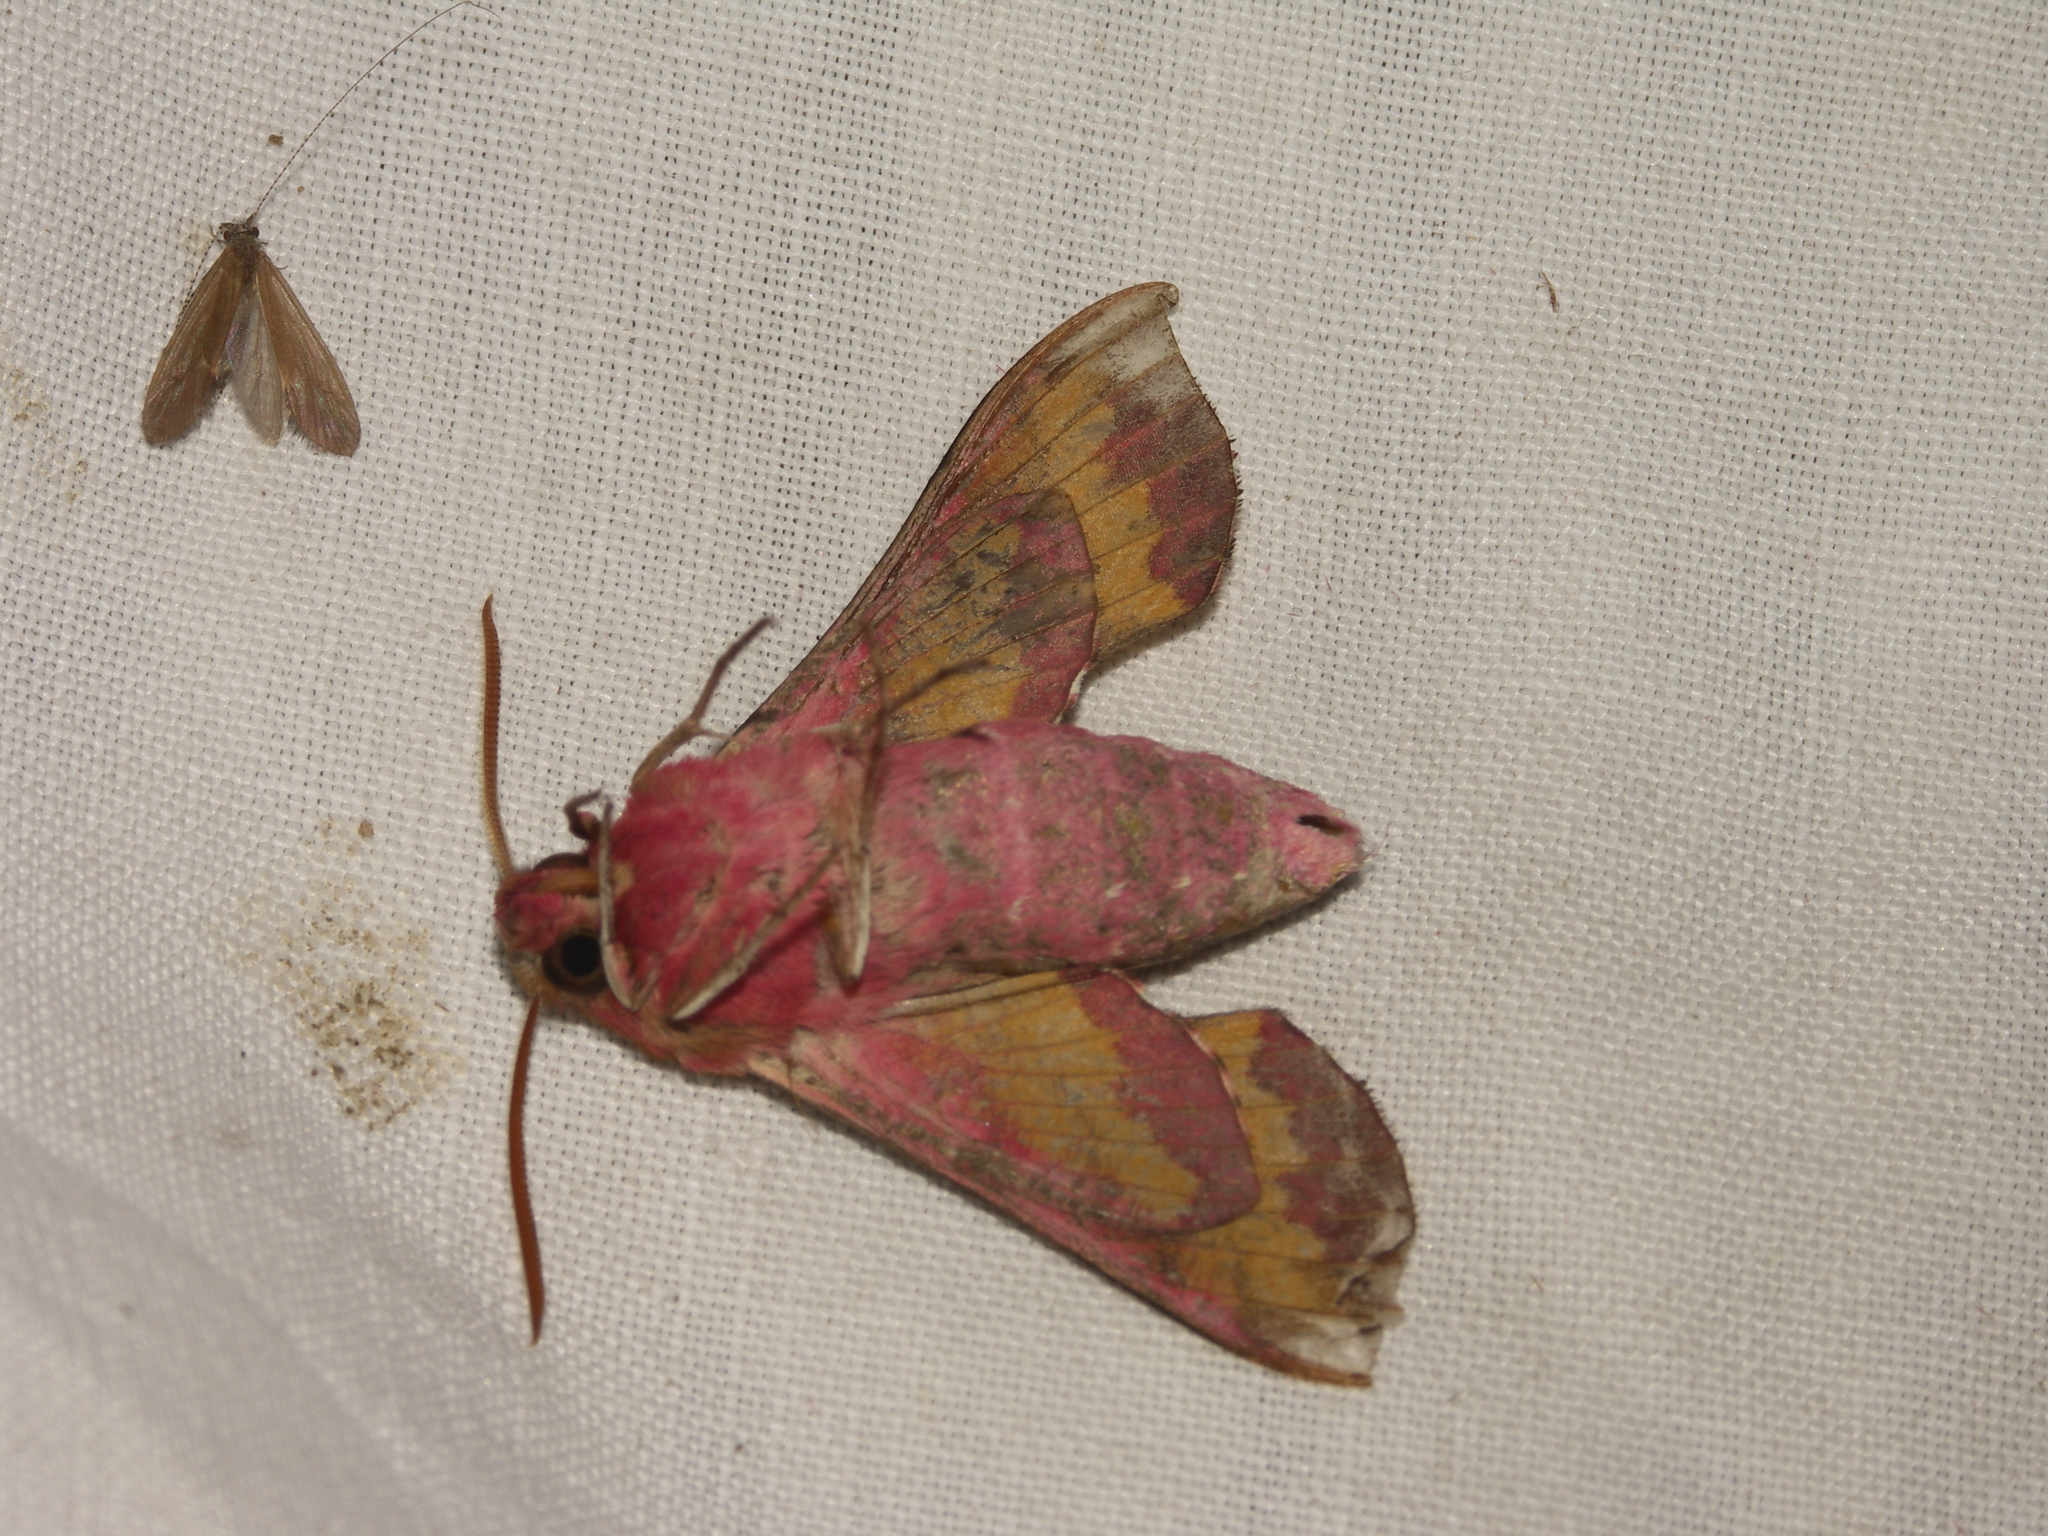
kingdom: Animalia
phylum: Arthropoda
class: Insecta
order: Lepidoptera
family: Sphingidae
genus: Deilephila
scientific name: Deilephila porcellus
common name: Small elephant hawk-moth
